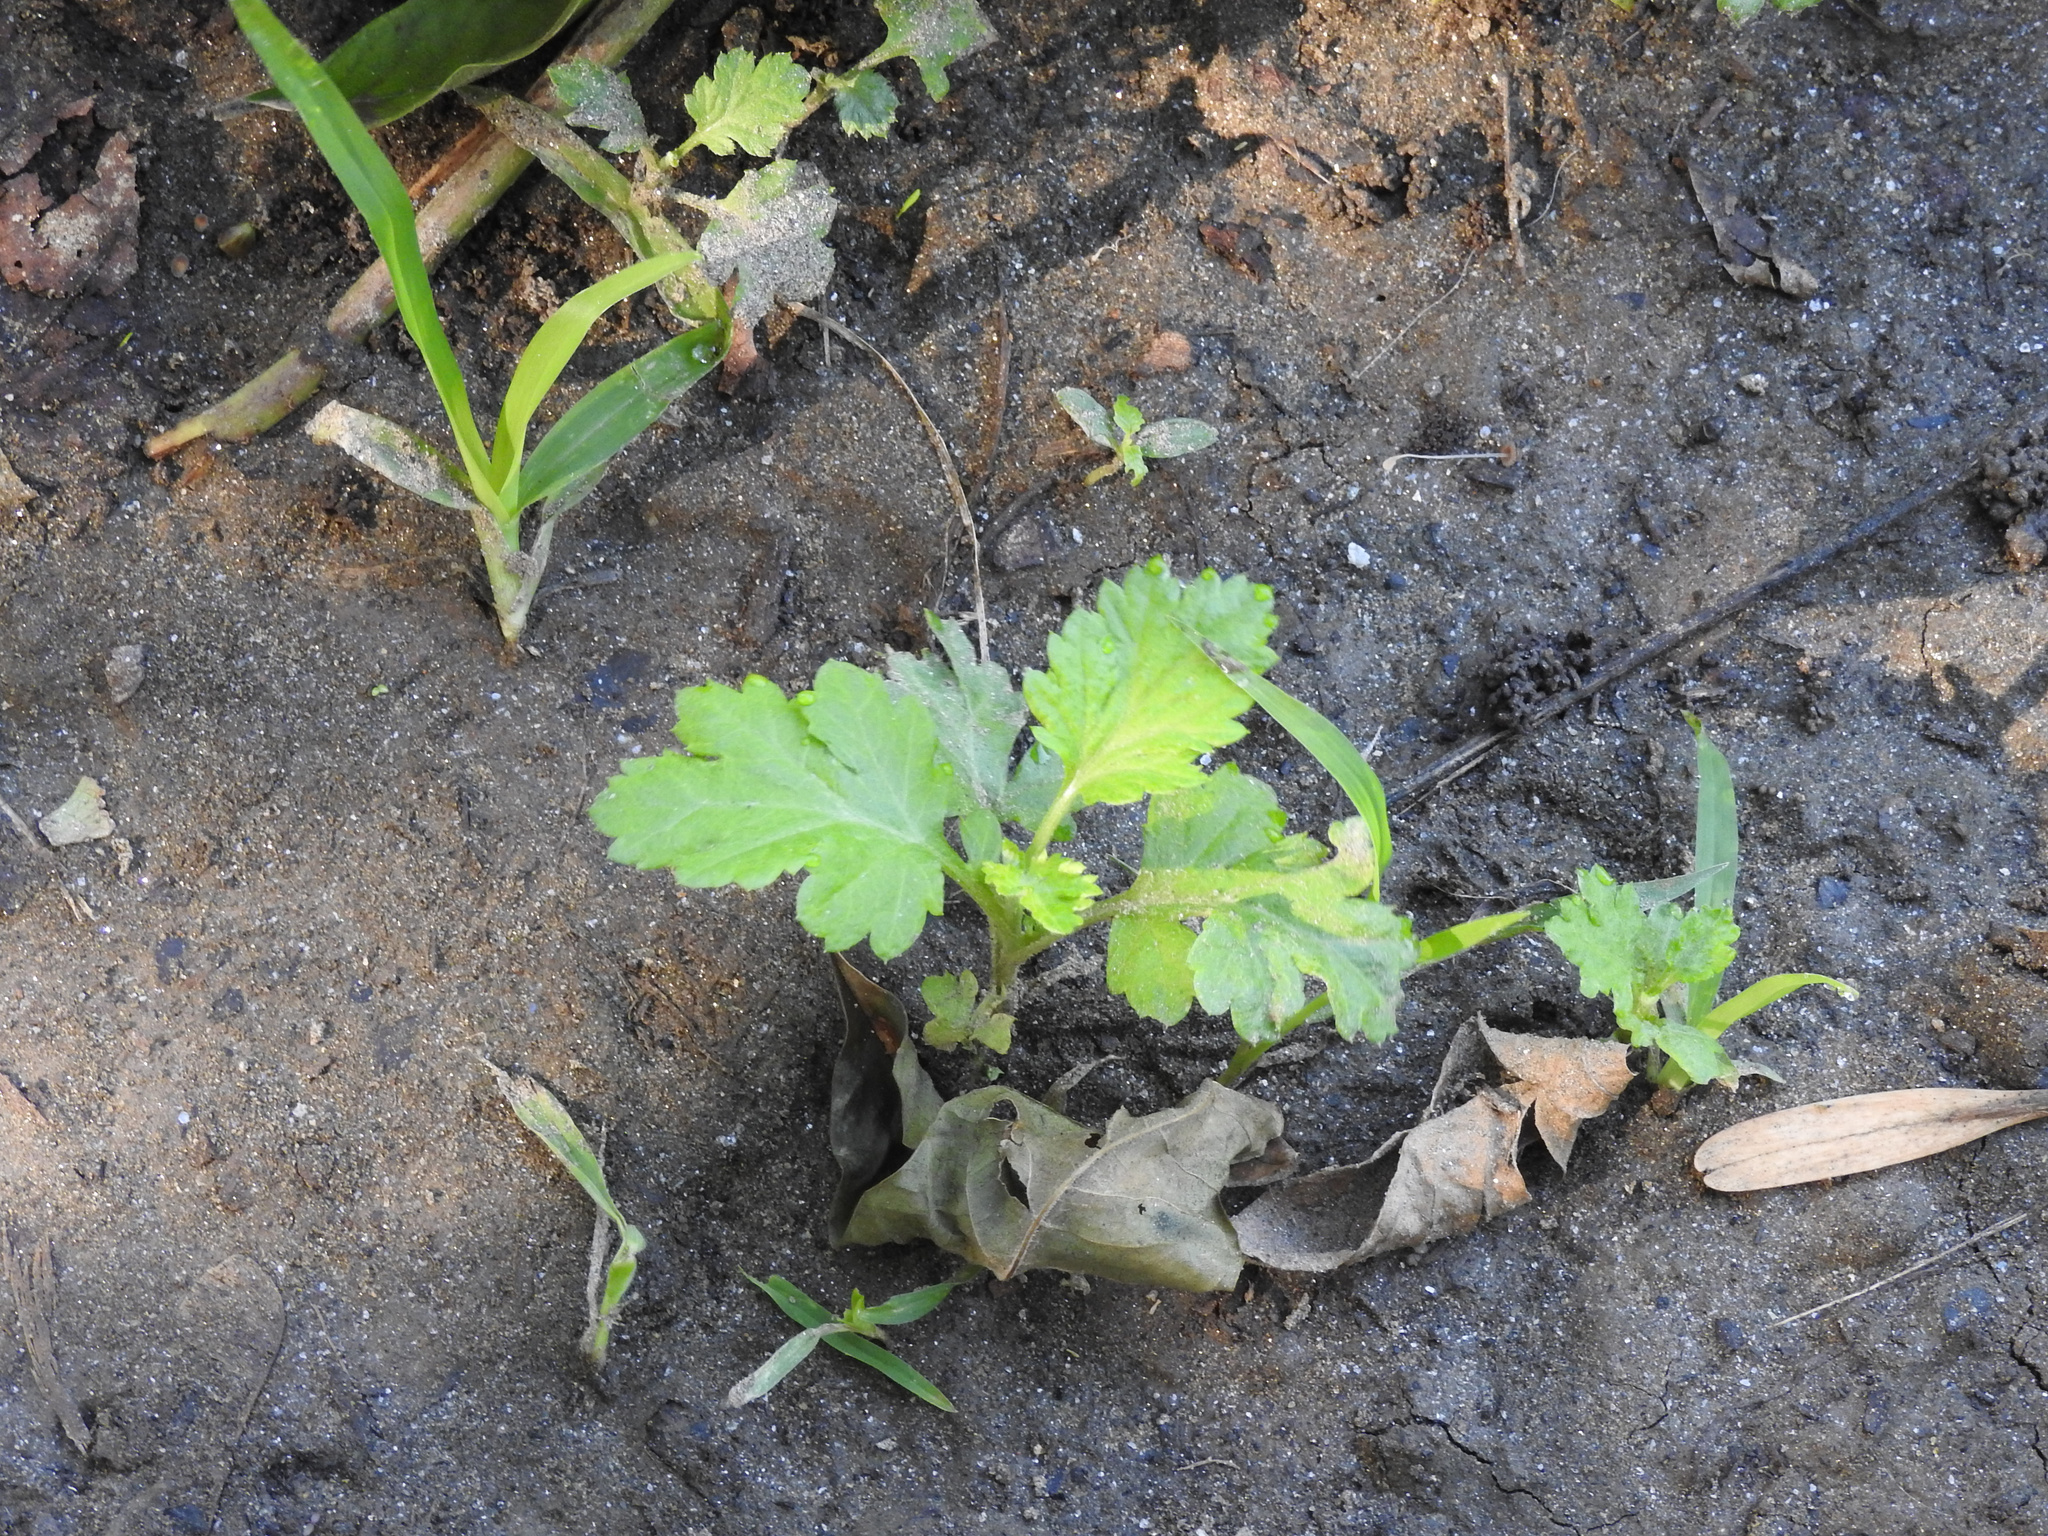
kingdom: Plantae
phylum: Tracheophyta
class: Magnoliopsida
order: Asterales
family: Asteraceae
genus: Artemisia
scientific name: Artemisia vulgaris
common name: Mugwort
